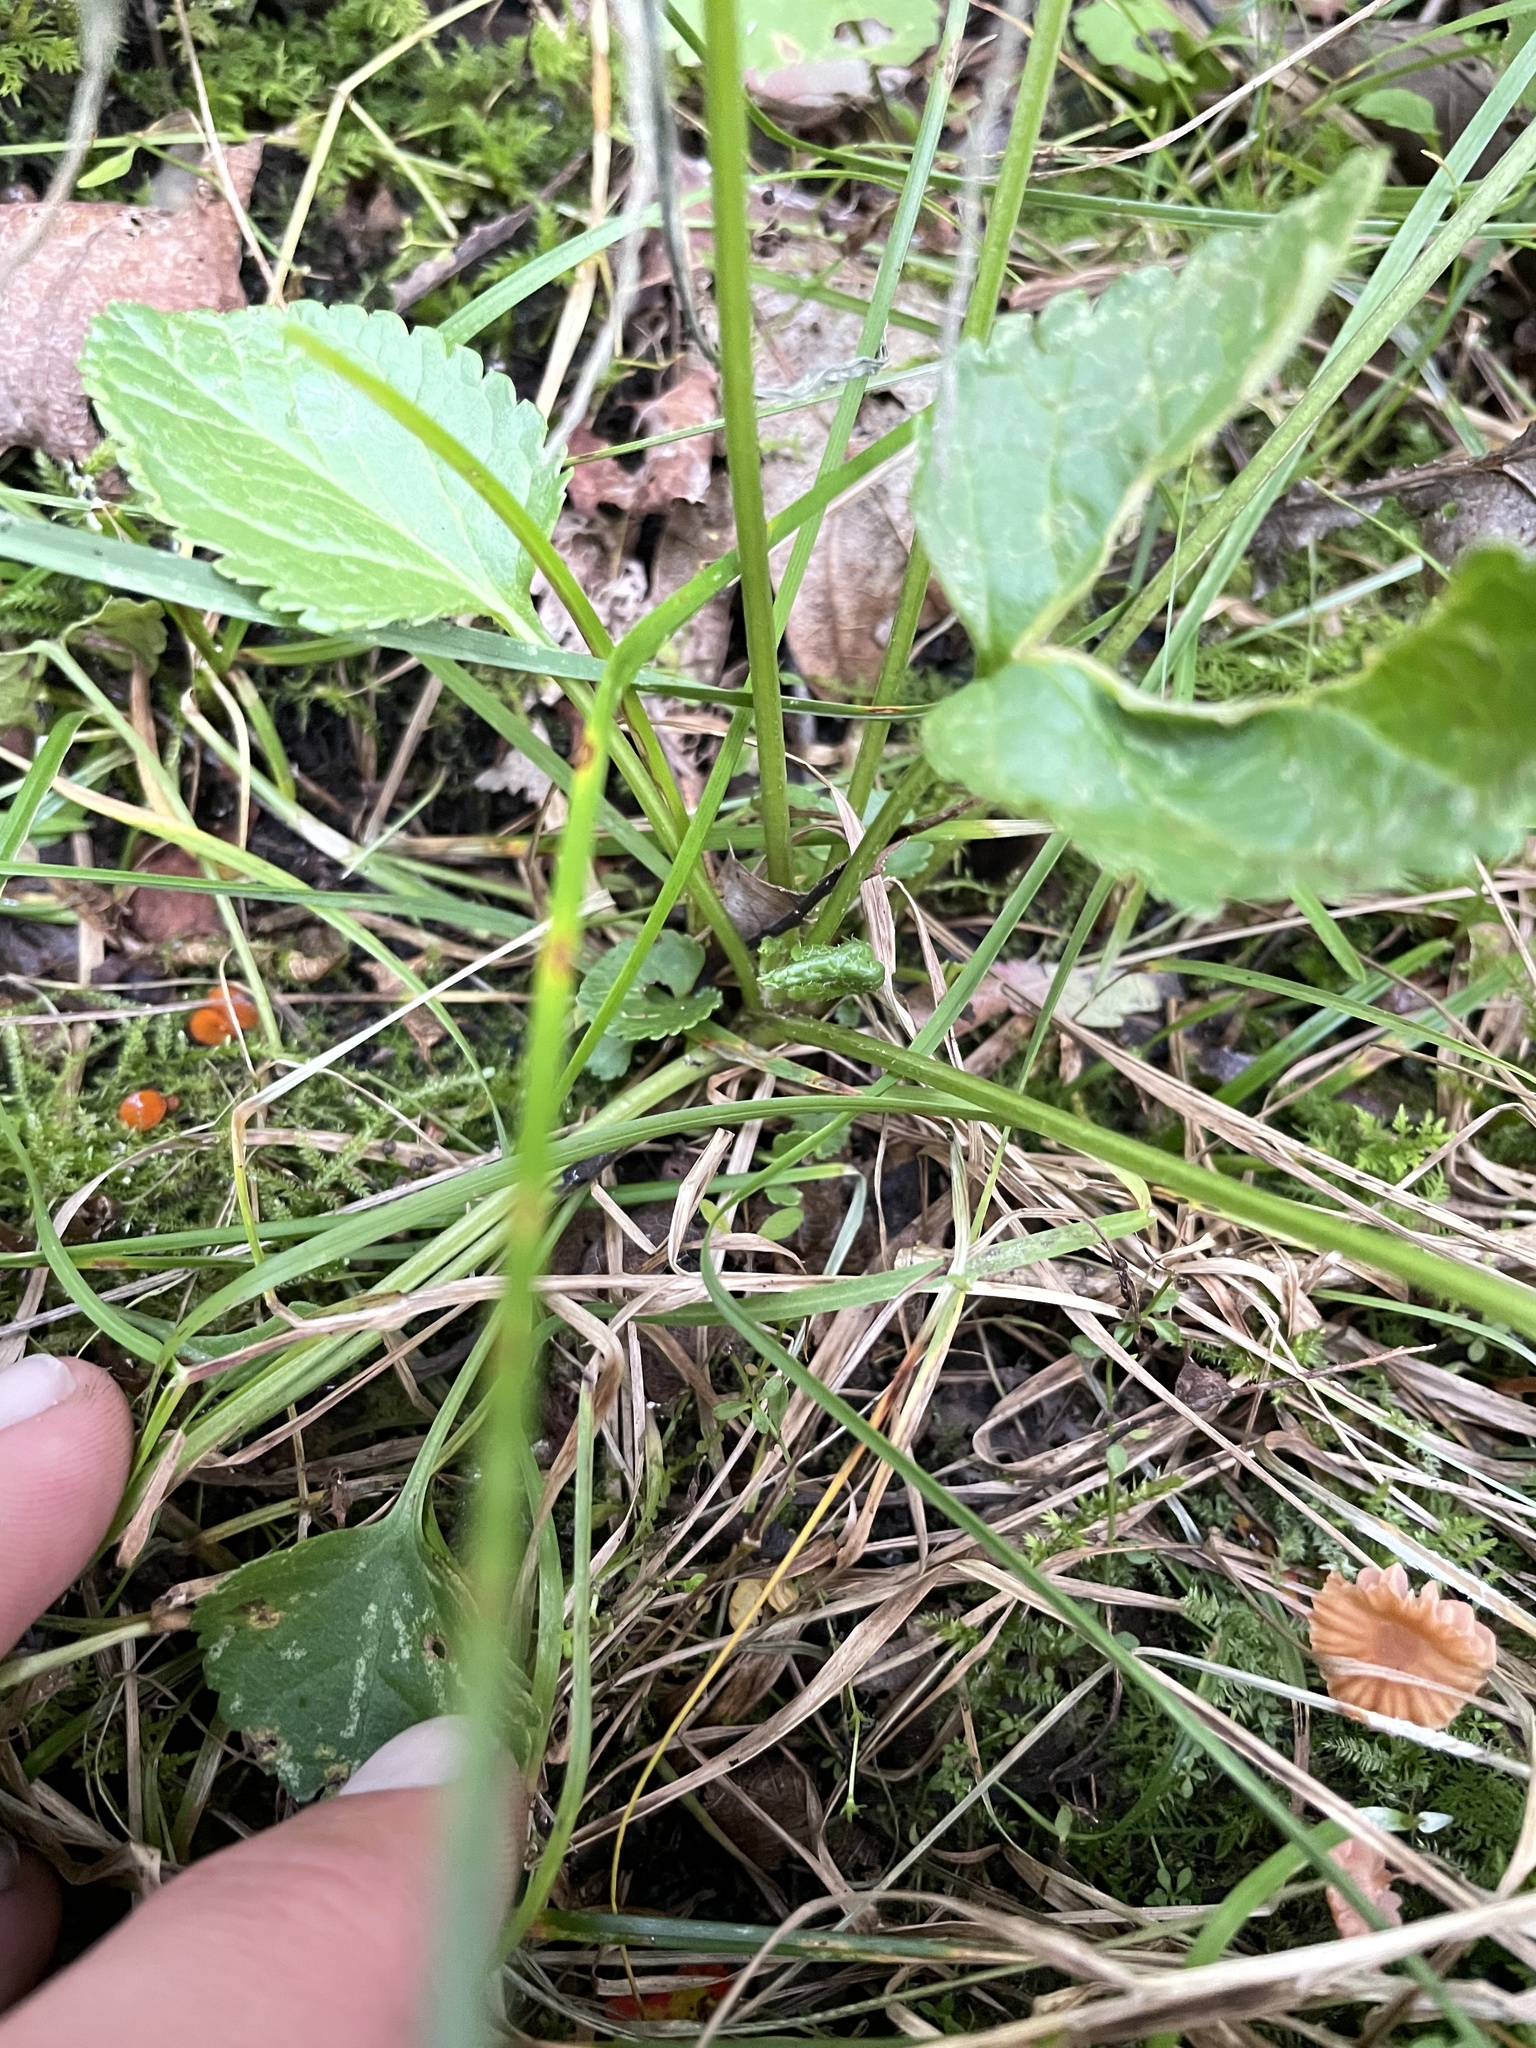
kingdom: Animalia
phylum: Arthropoda
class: Insecta
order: Lepidoptera
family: Gracillariidae
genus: Phyllocnistis
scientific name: Phyllocnistis insignis
